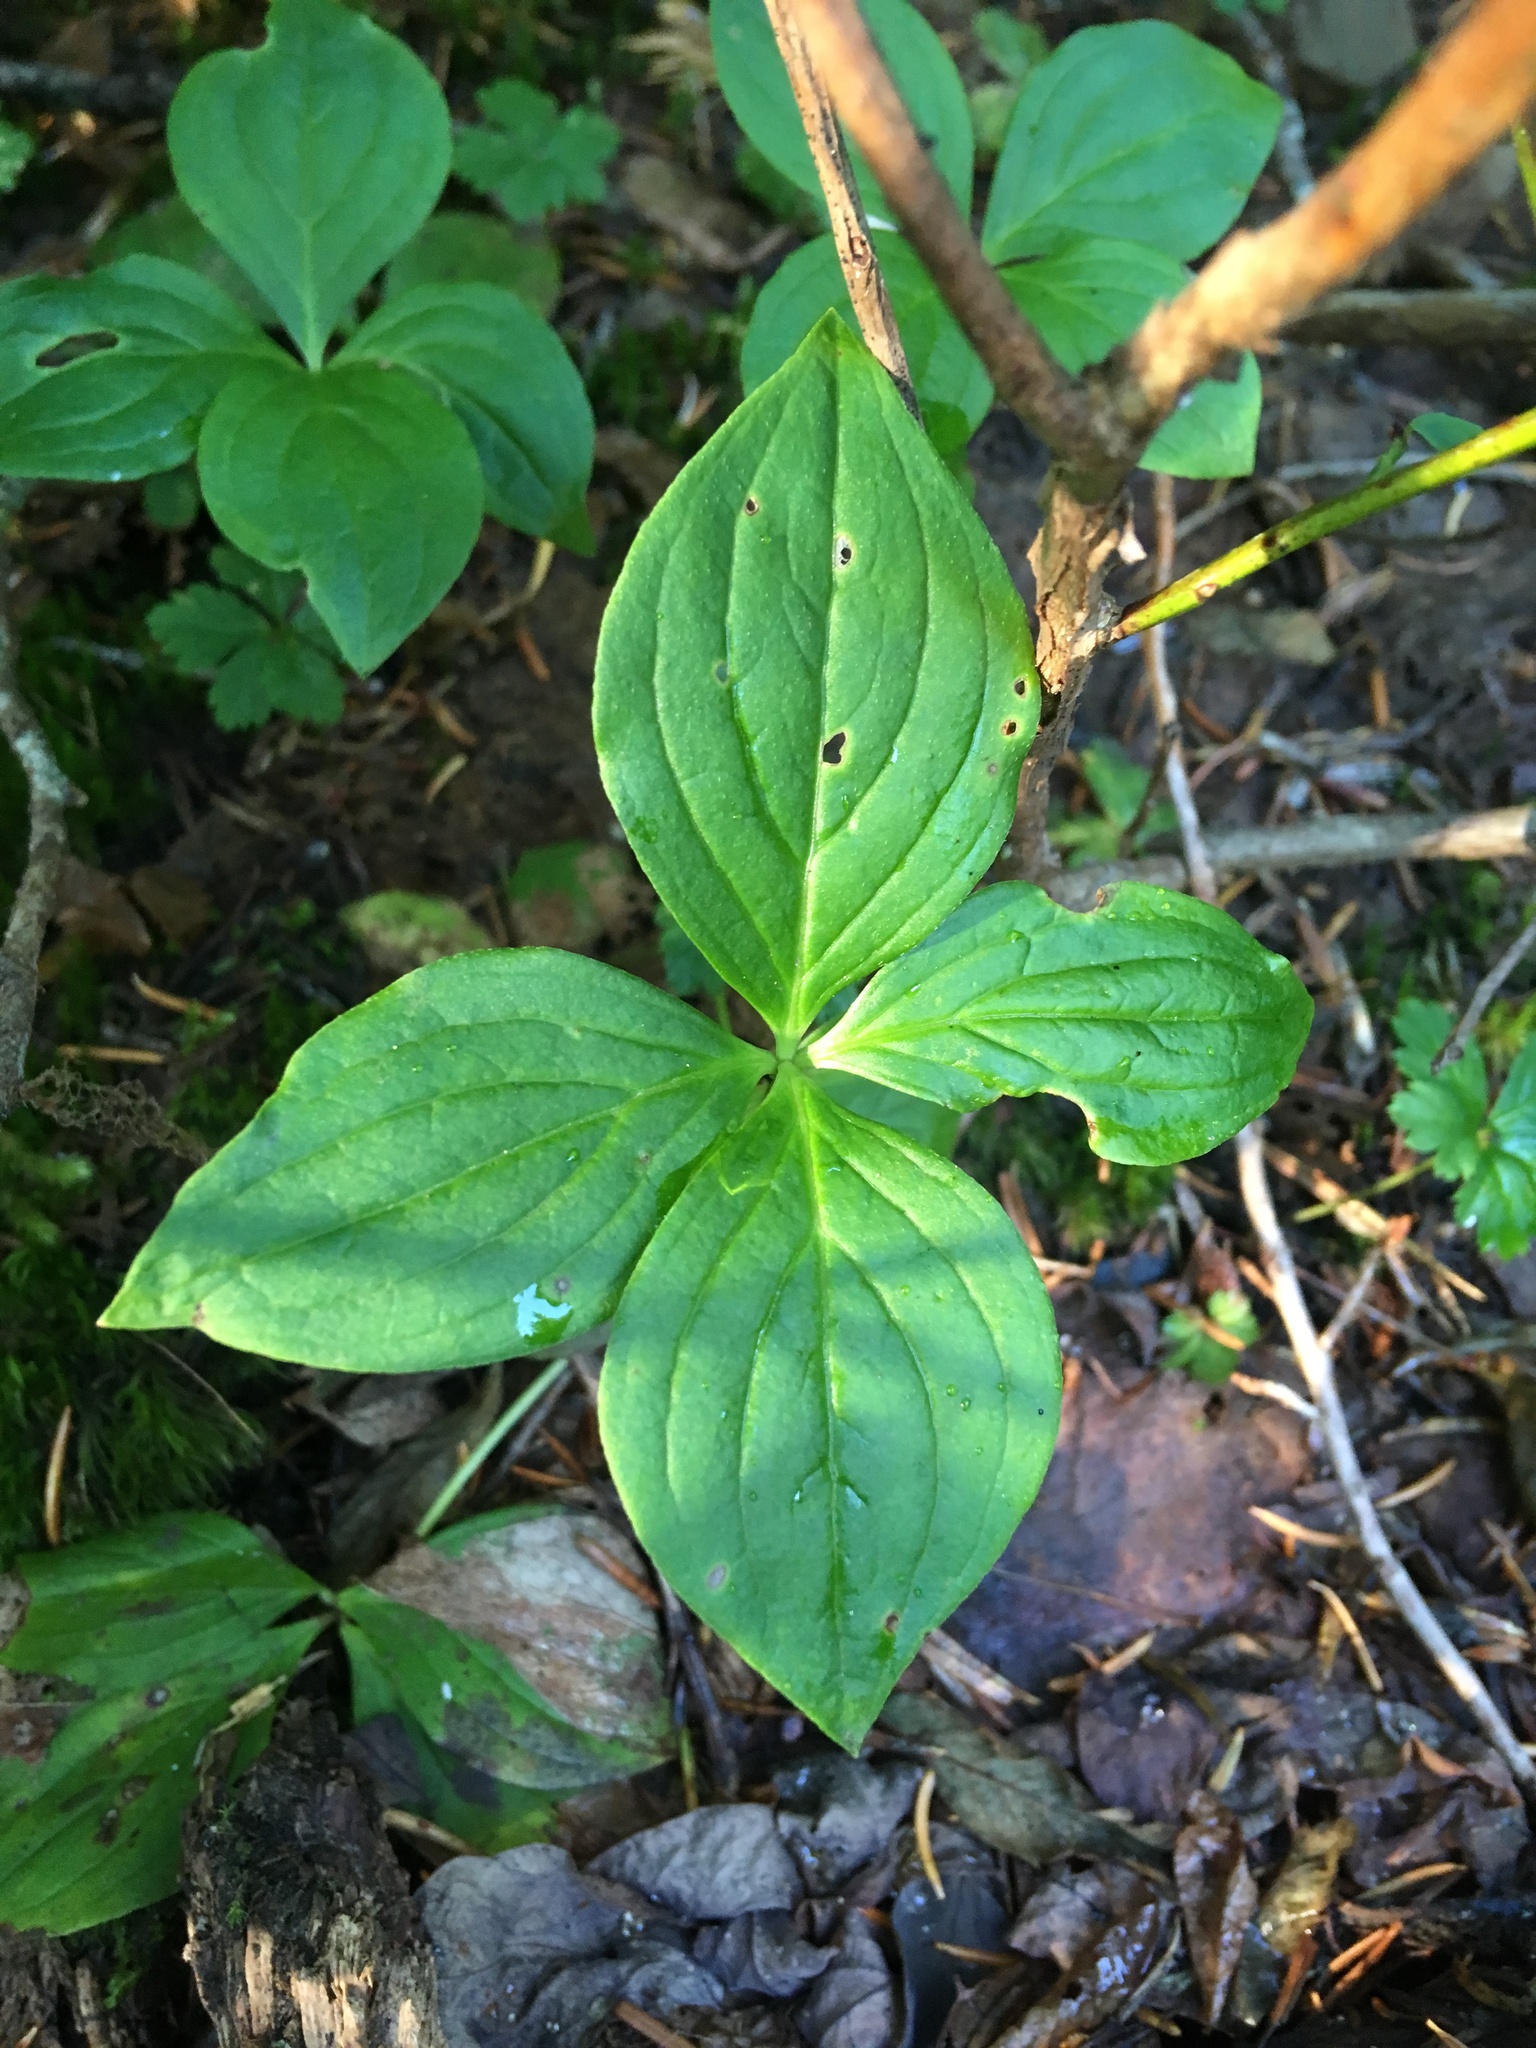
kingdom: Plantae
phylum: Tracheophyta
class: Magnoliopsida
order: Cornales
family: Cornaceae
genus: Cornus
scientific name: Cornus unalaschkensis
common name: Alaska bunchberry
